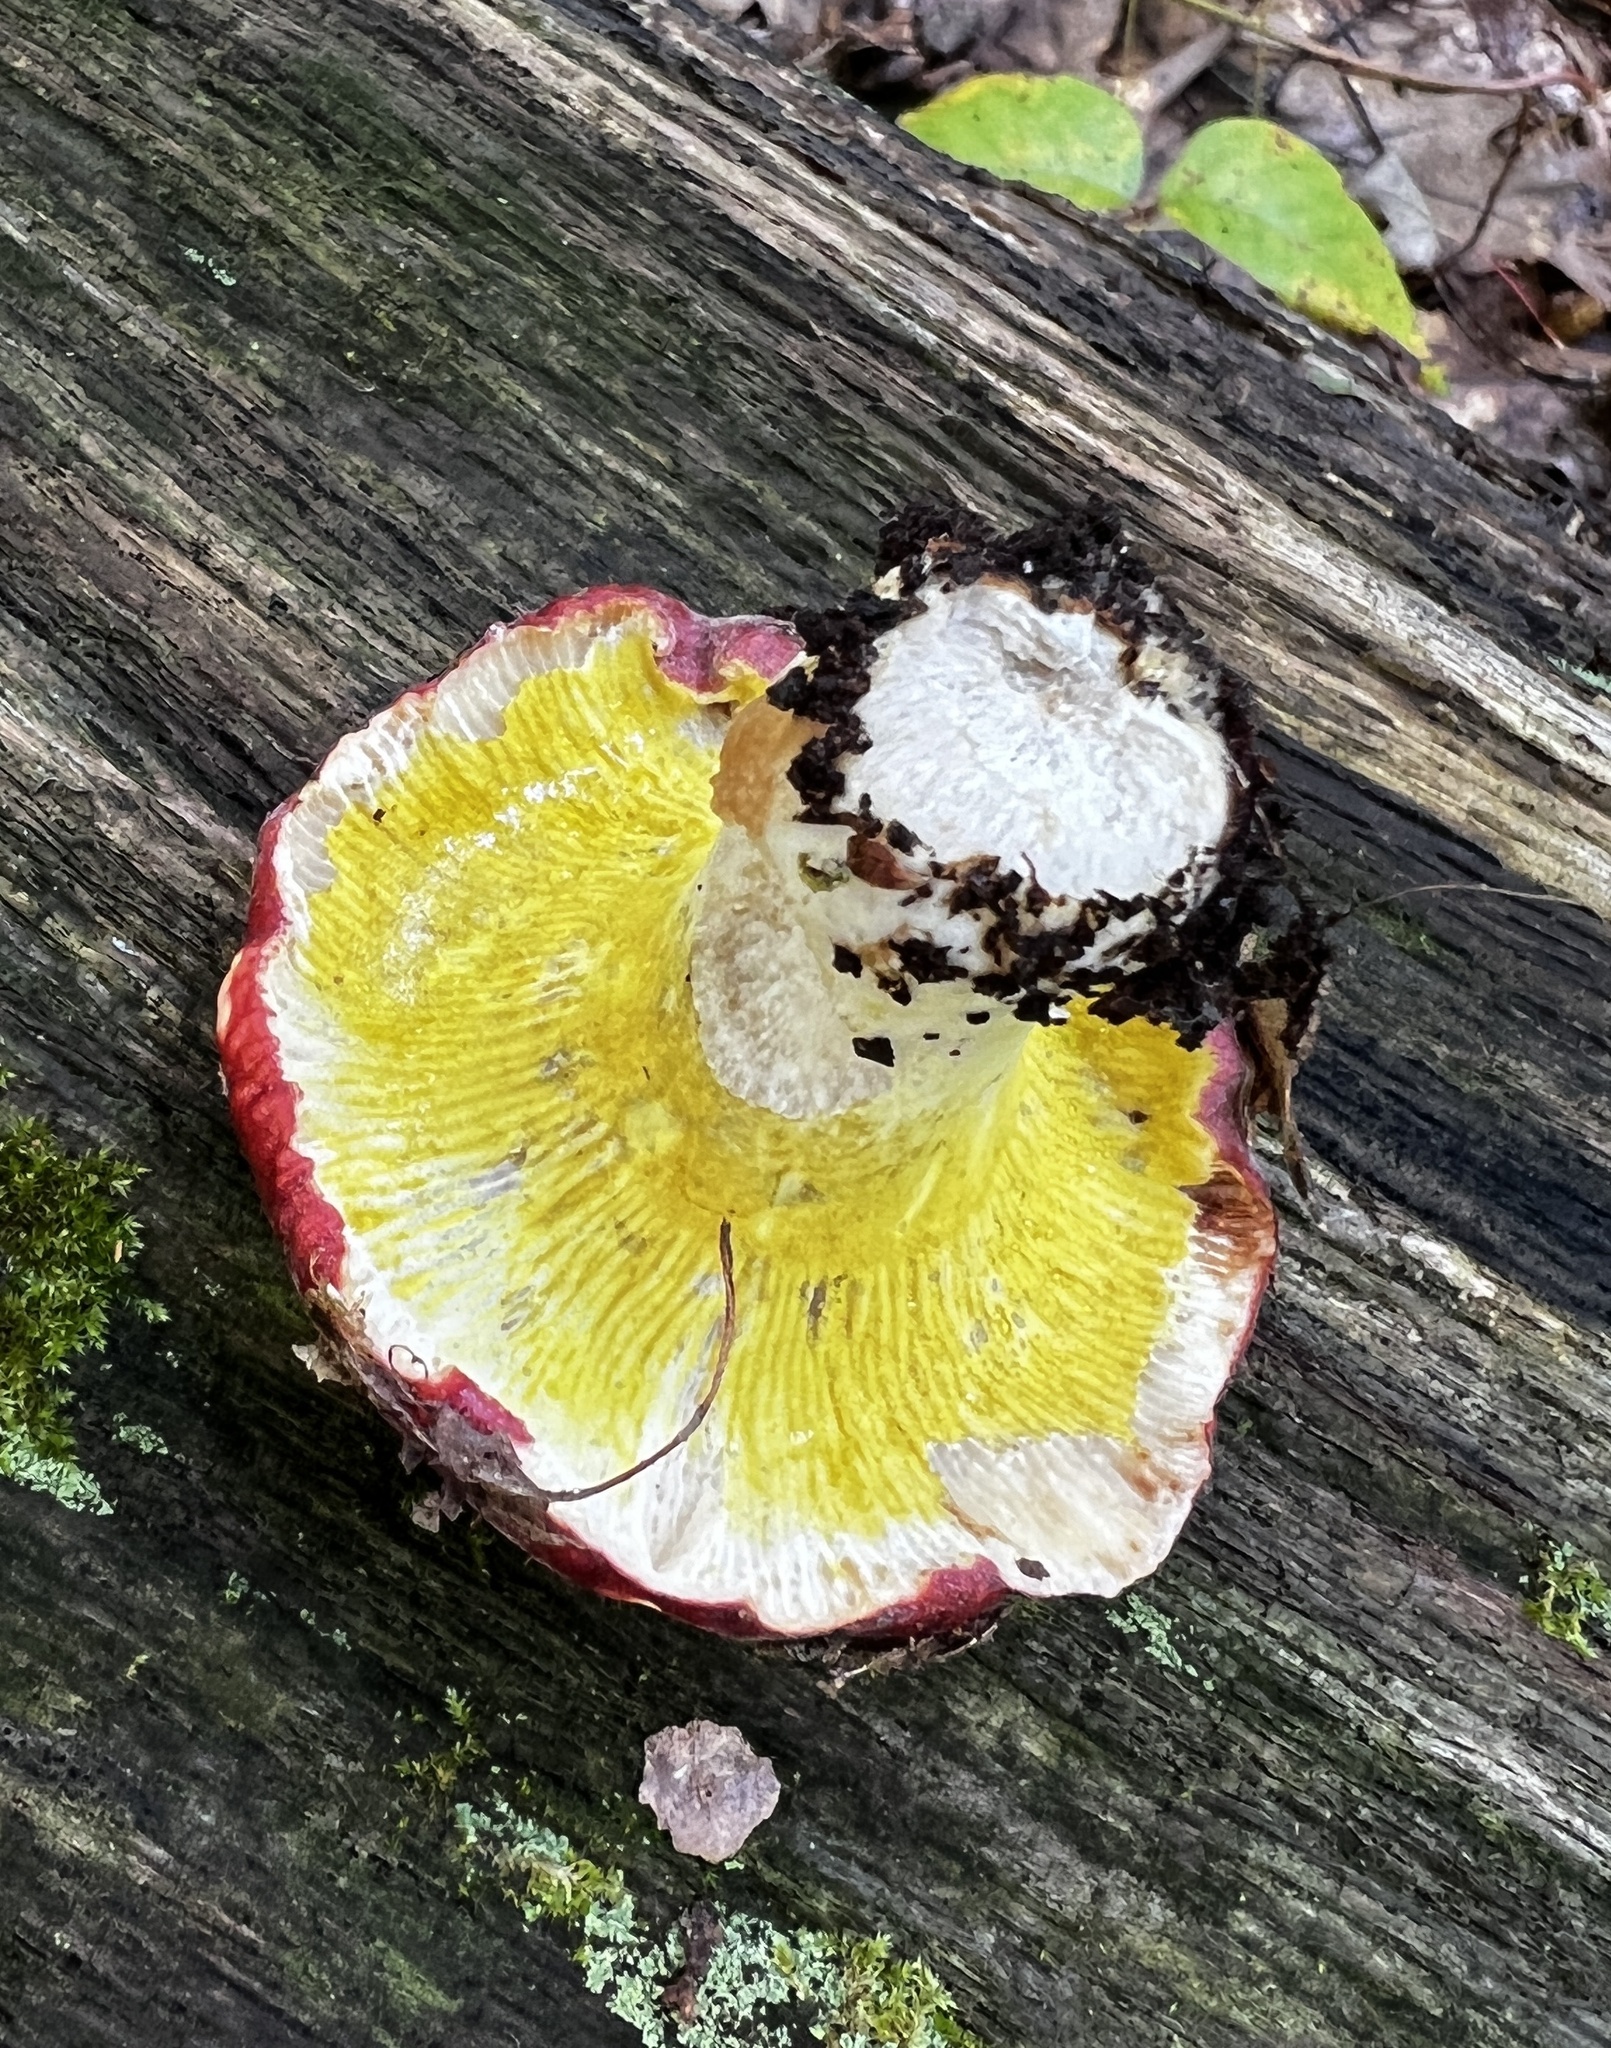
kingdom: Fungi
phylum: Ascomycota
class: Sordariomycetes
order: Hypocreales
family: Hypocreaceae
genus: Hypomyces
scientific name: Hypomyces luteovirens
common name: Yellow-green russula mold
